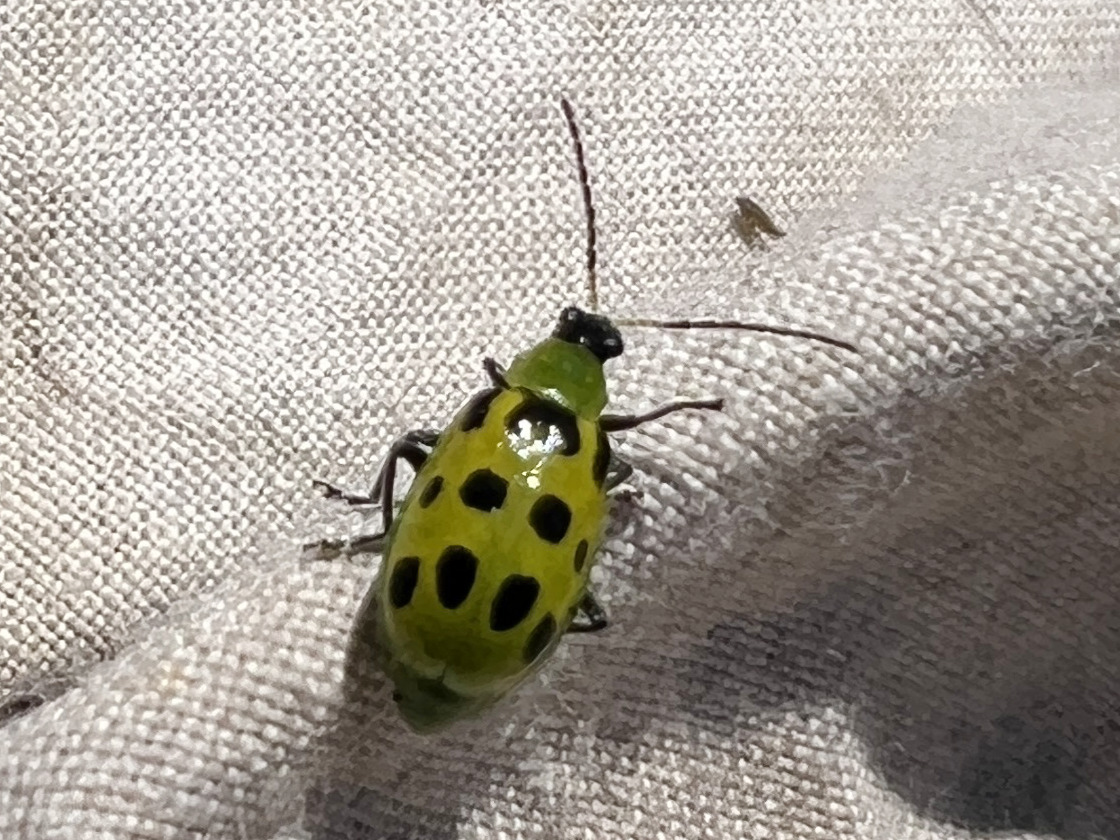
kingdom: Animalia
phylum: Arthropoda
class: Insecta
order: Coleoptera
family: Chrysomelidae
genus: Diabrotica
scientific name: Diabrotica undecimpunctata
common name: Spotted cucumber beetle
